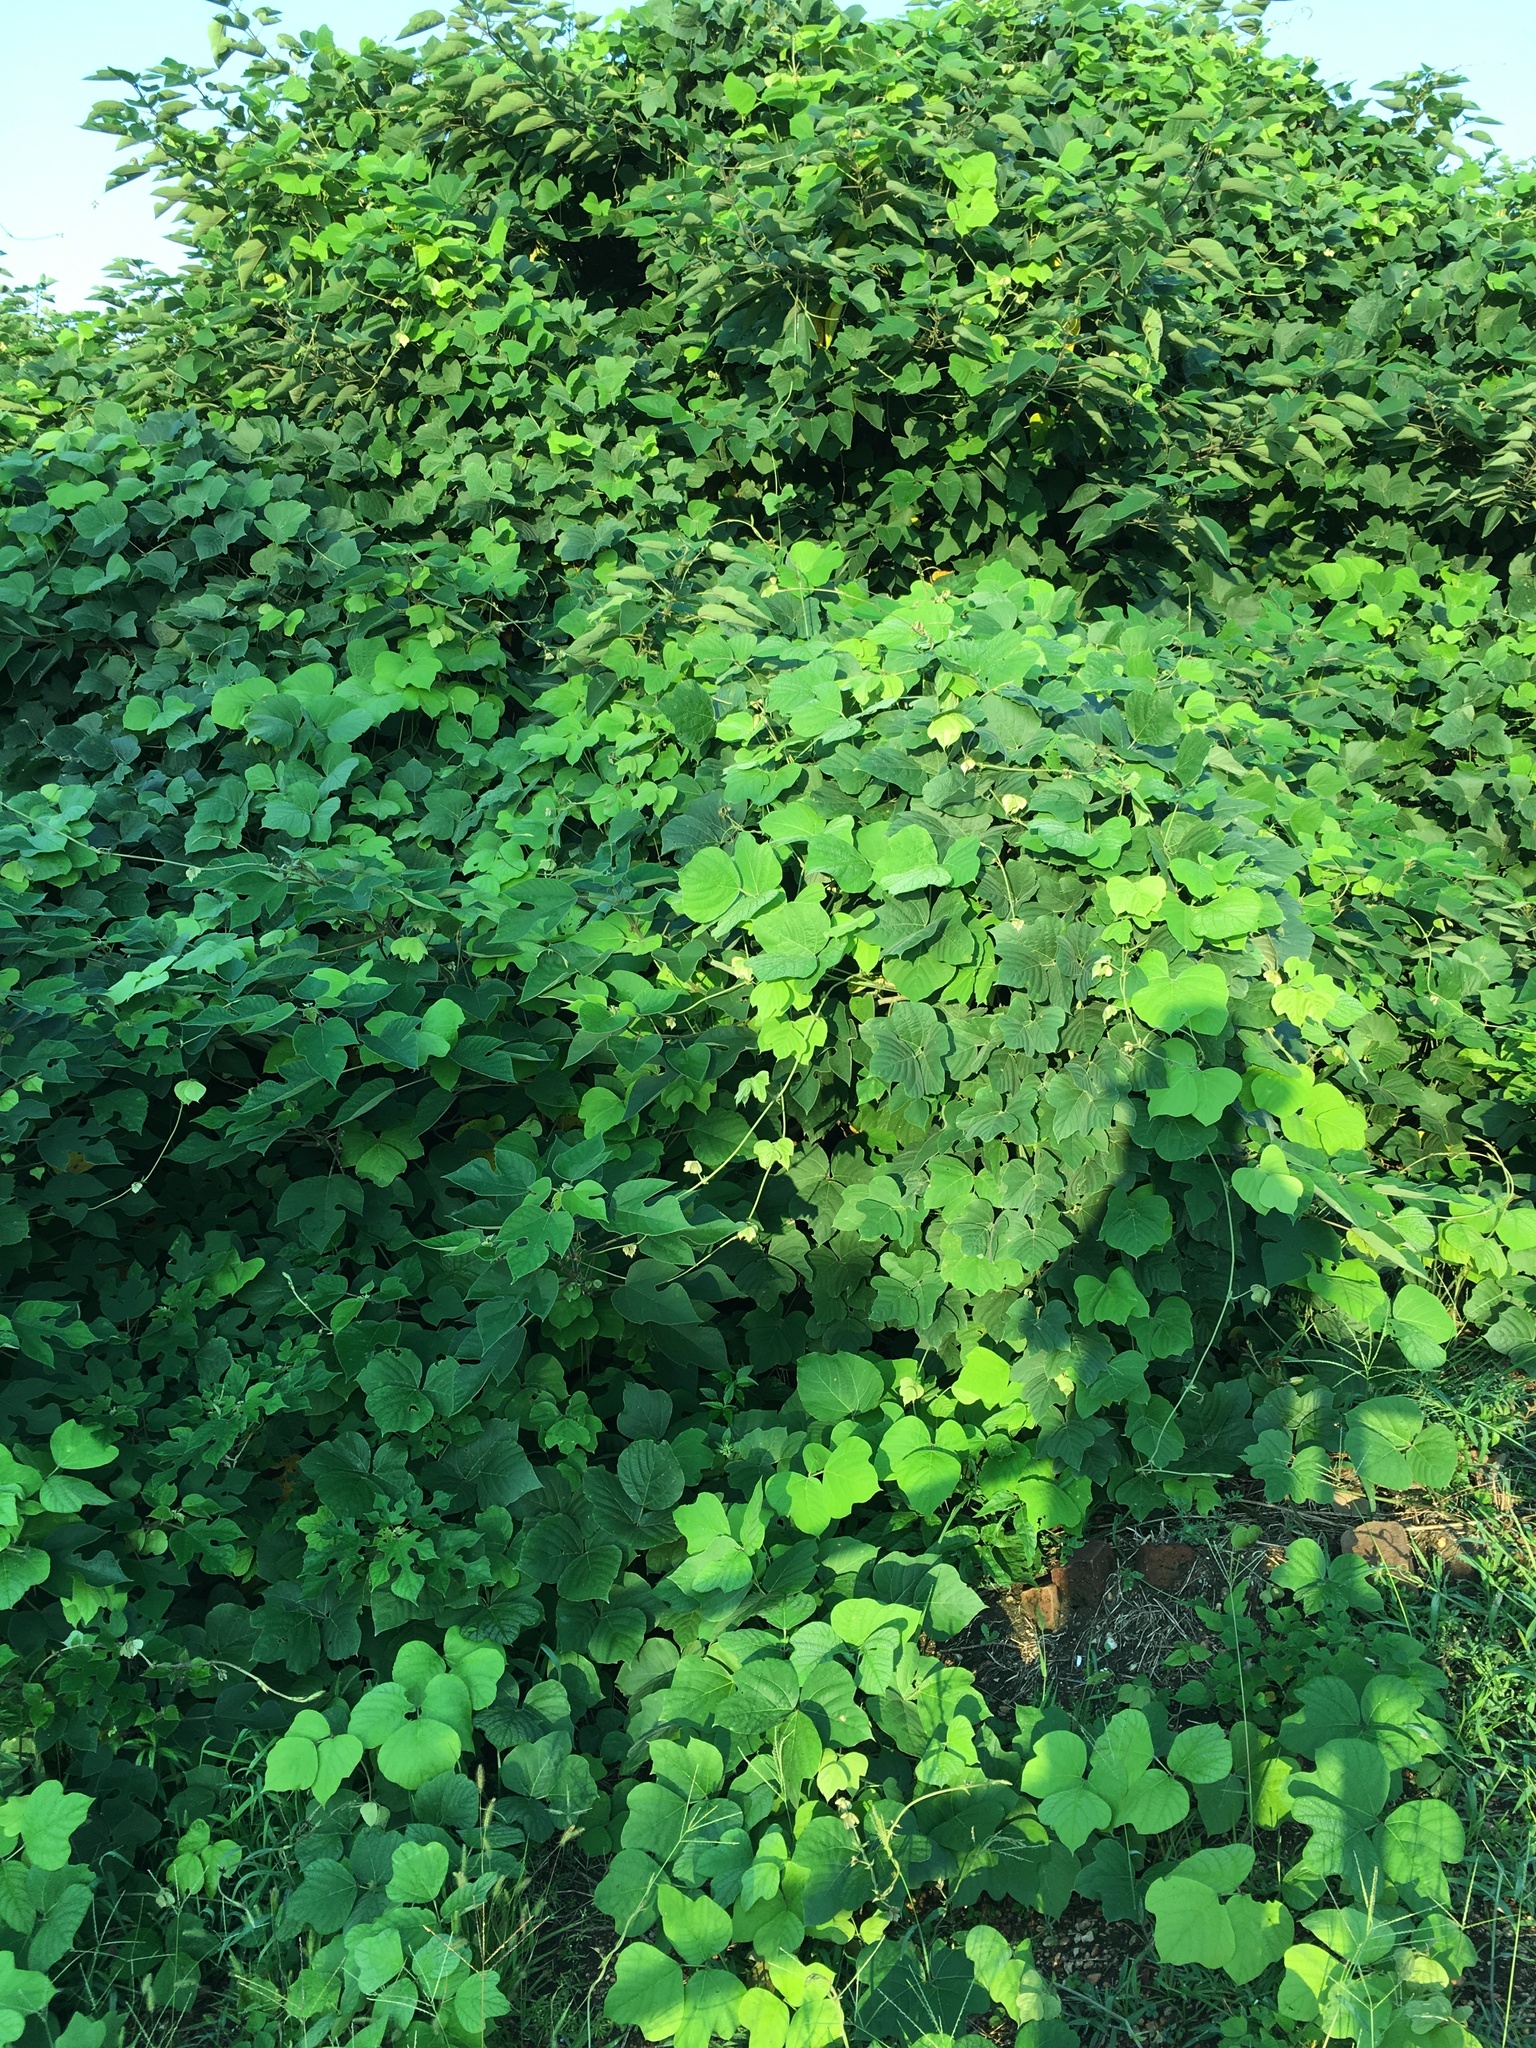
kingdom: Plantae
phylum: Tracheophyta
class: Magnoliopsida
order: Fabales
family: Fabaceae
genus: Pueraria
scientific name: Pueraria montana
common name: Kudzu
